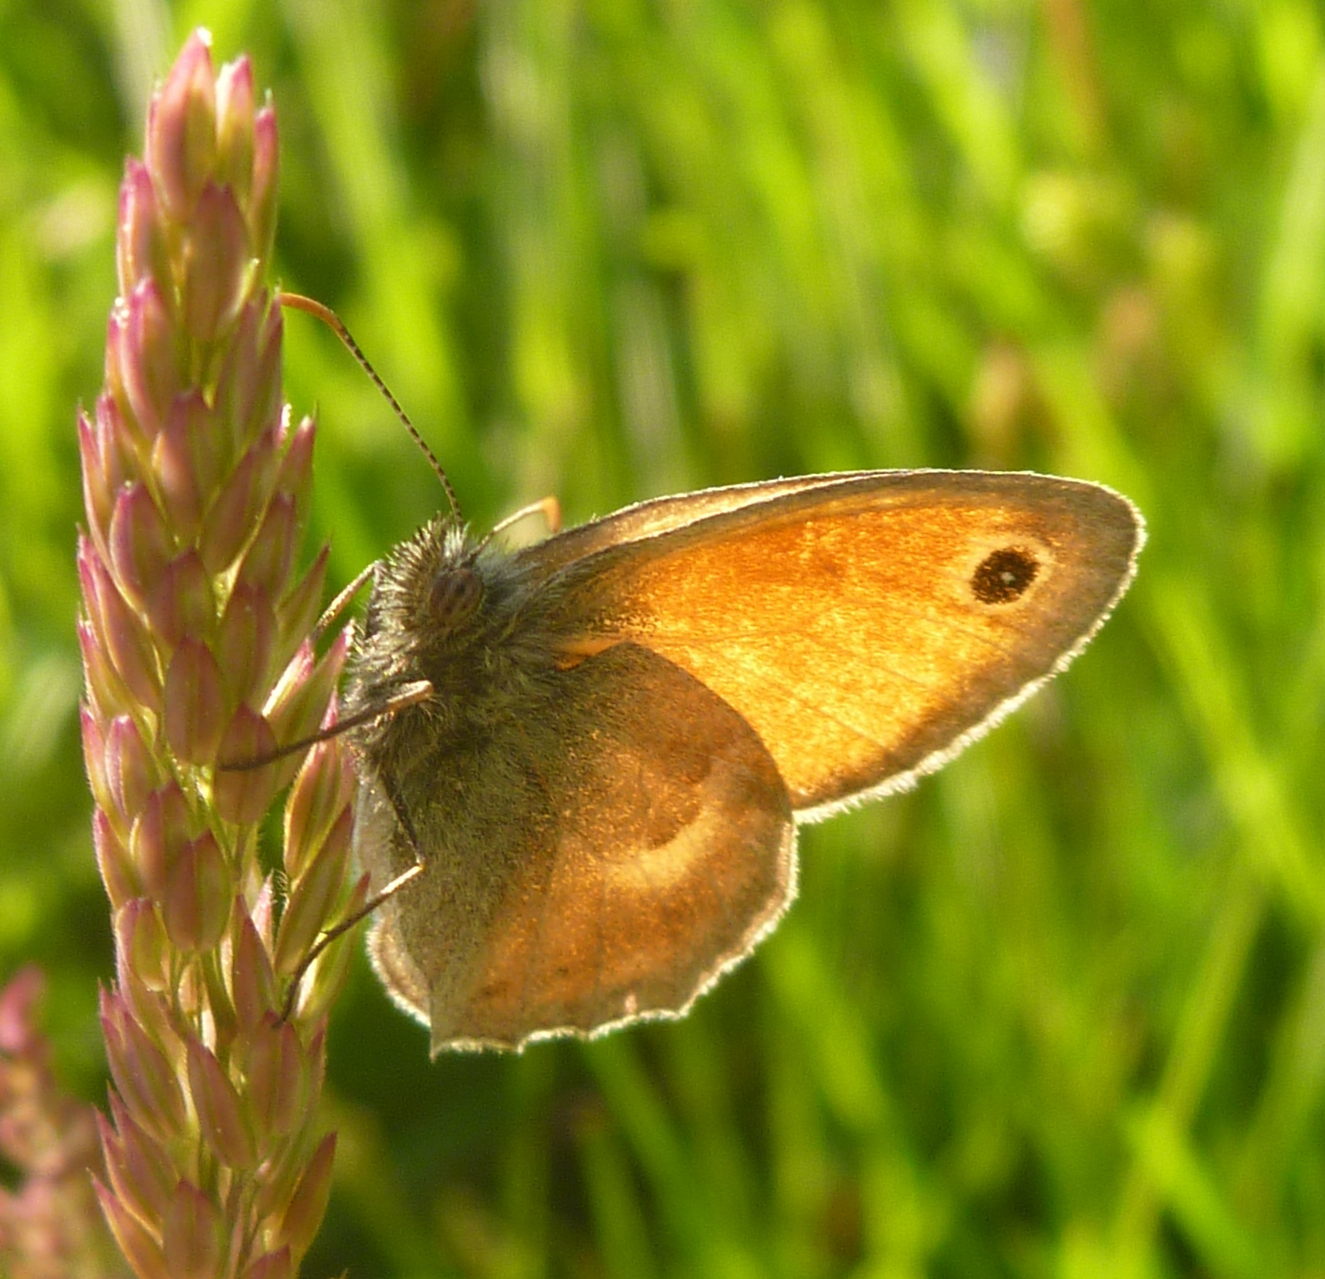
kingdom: Animalia
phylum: Arthropoda
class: Insecta
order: Lepidoptera
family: Nymphalidae
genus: Coenonympha
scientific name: Coenonympha pamphilus
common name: Small heath
